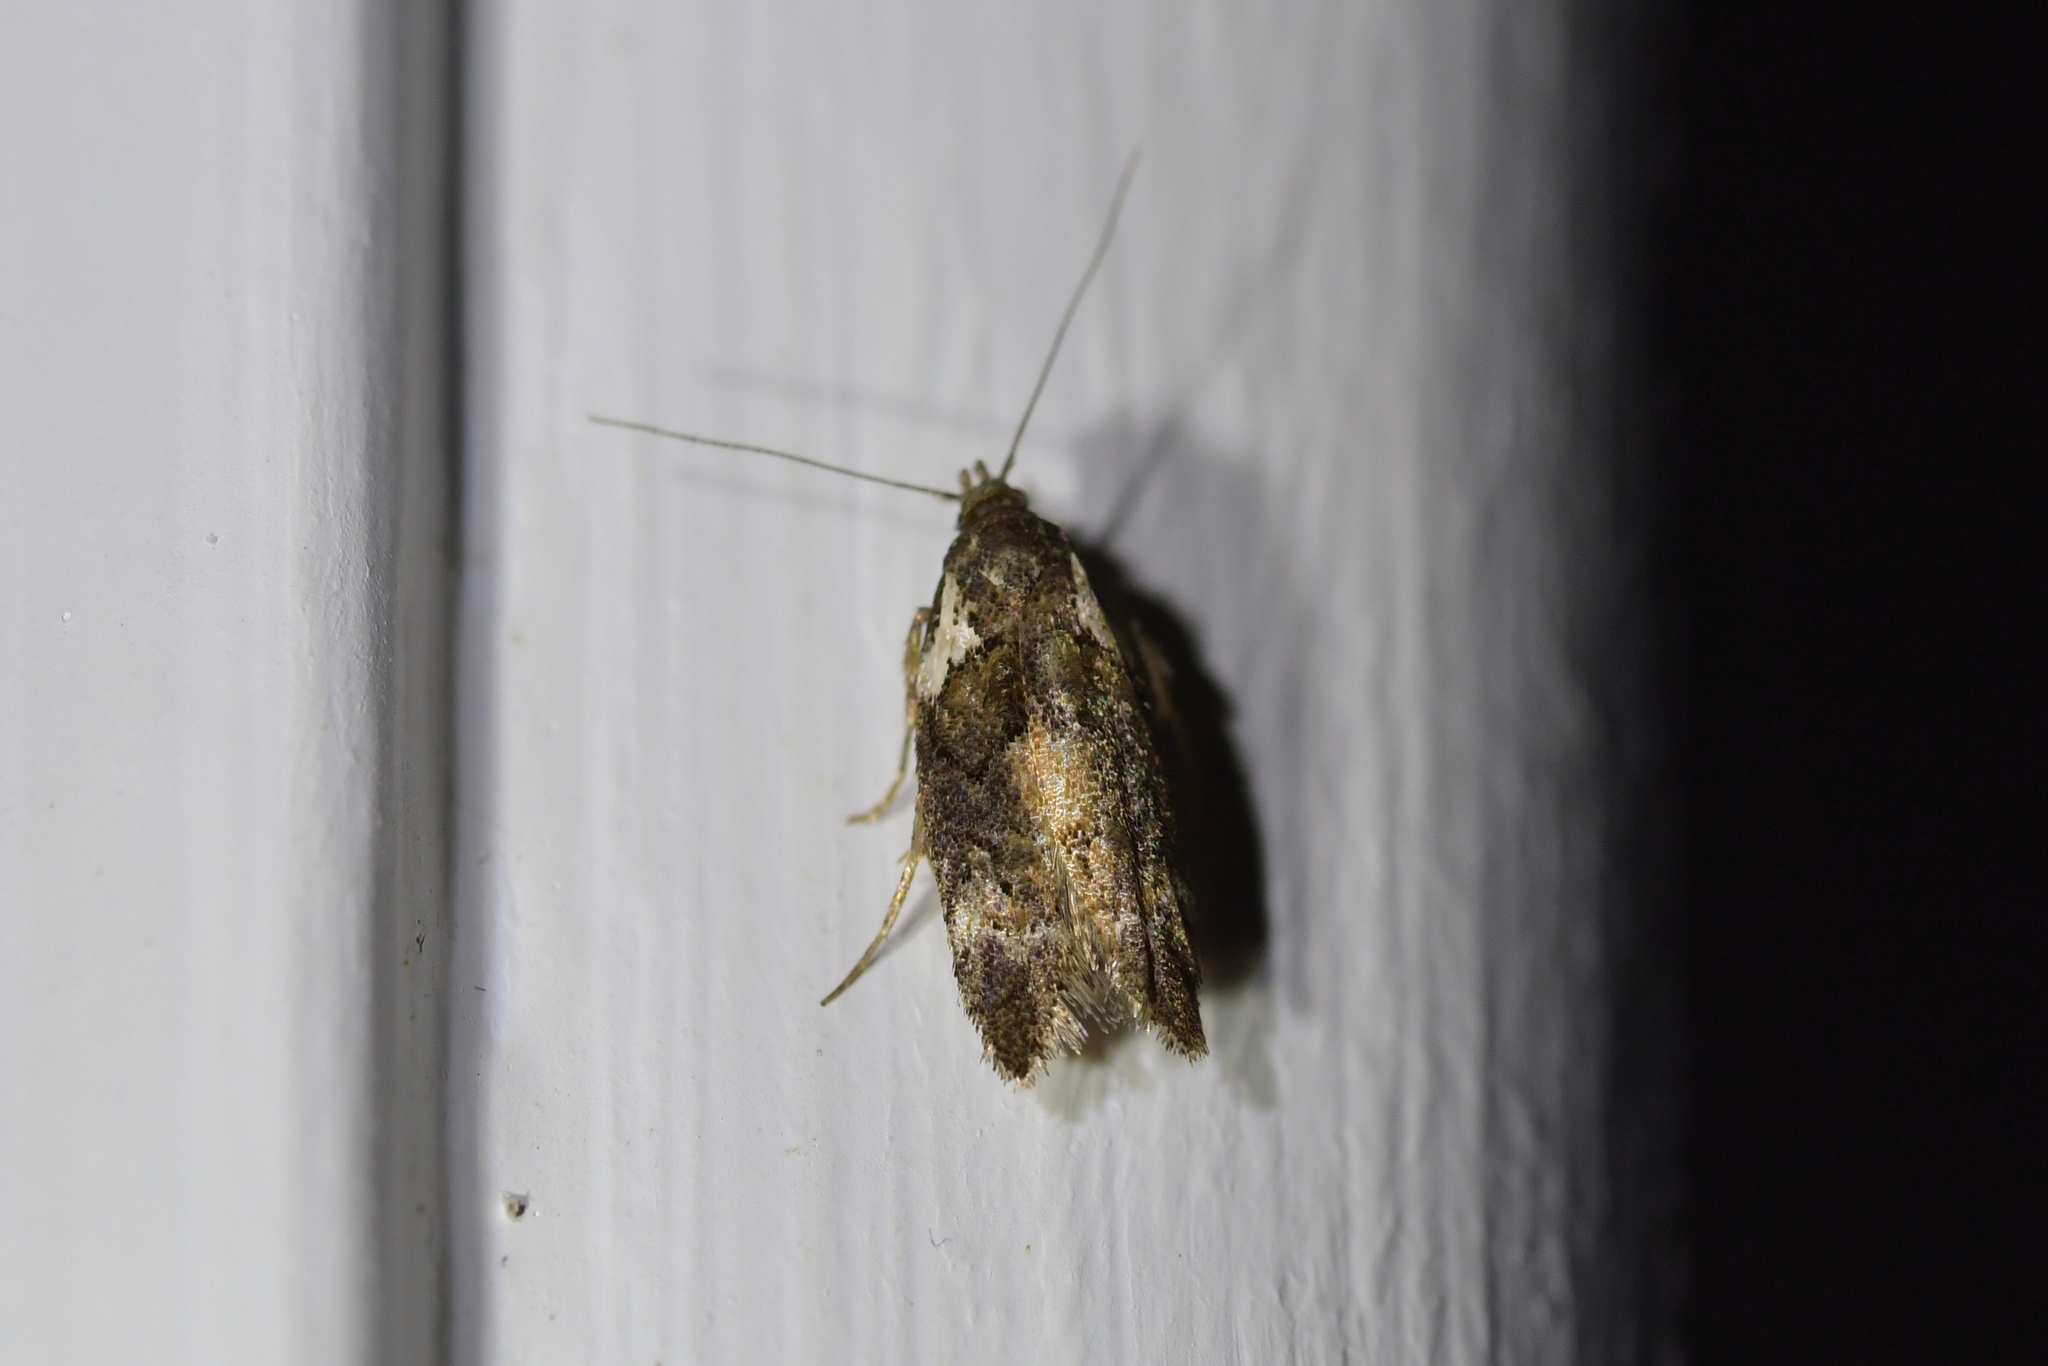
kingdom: Animalia
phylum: Arthropoda
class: Insecta
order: Lepidoptera
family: Oecophoridae
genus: Trachypepla
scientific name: Trachypepla conspicuella
